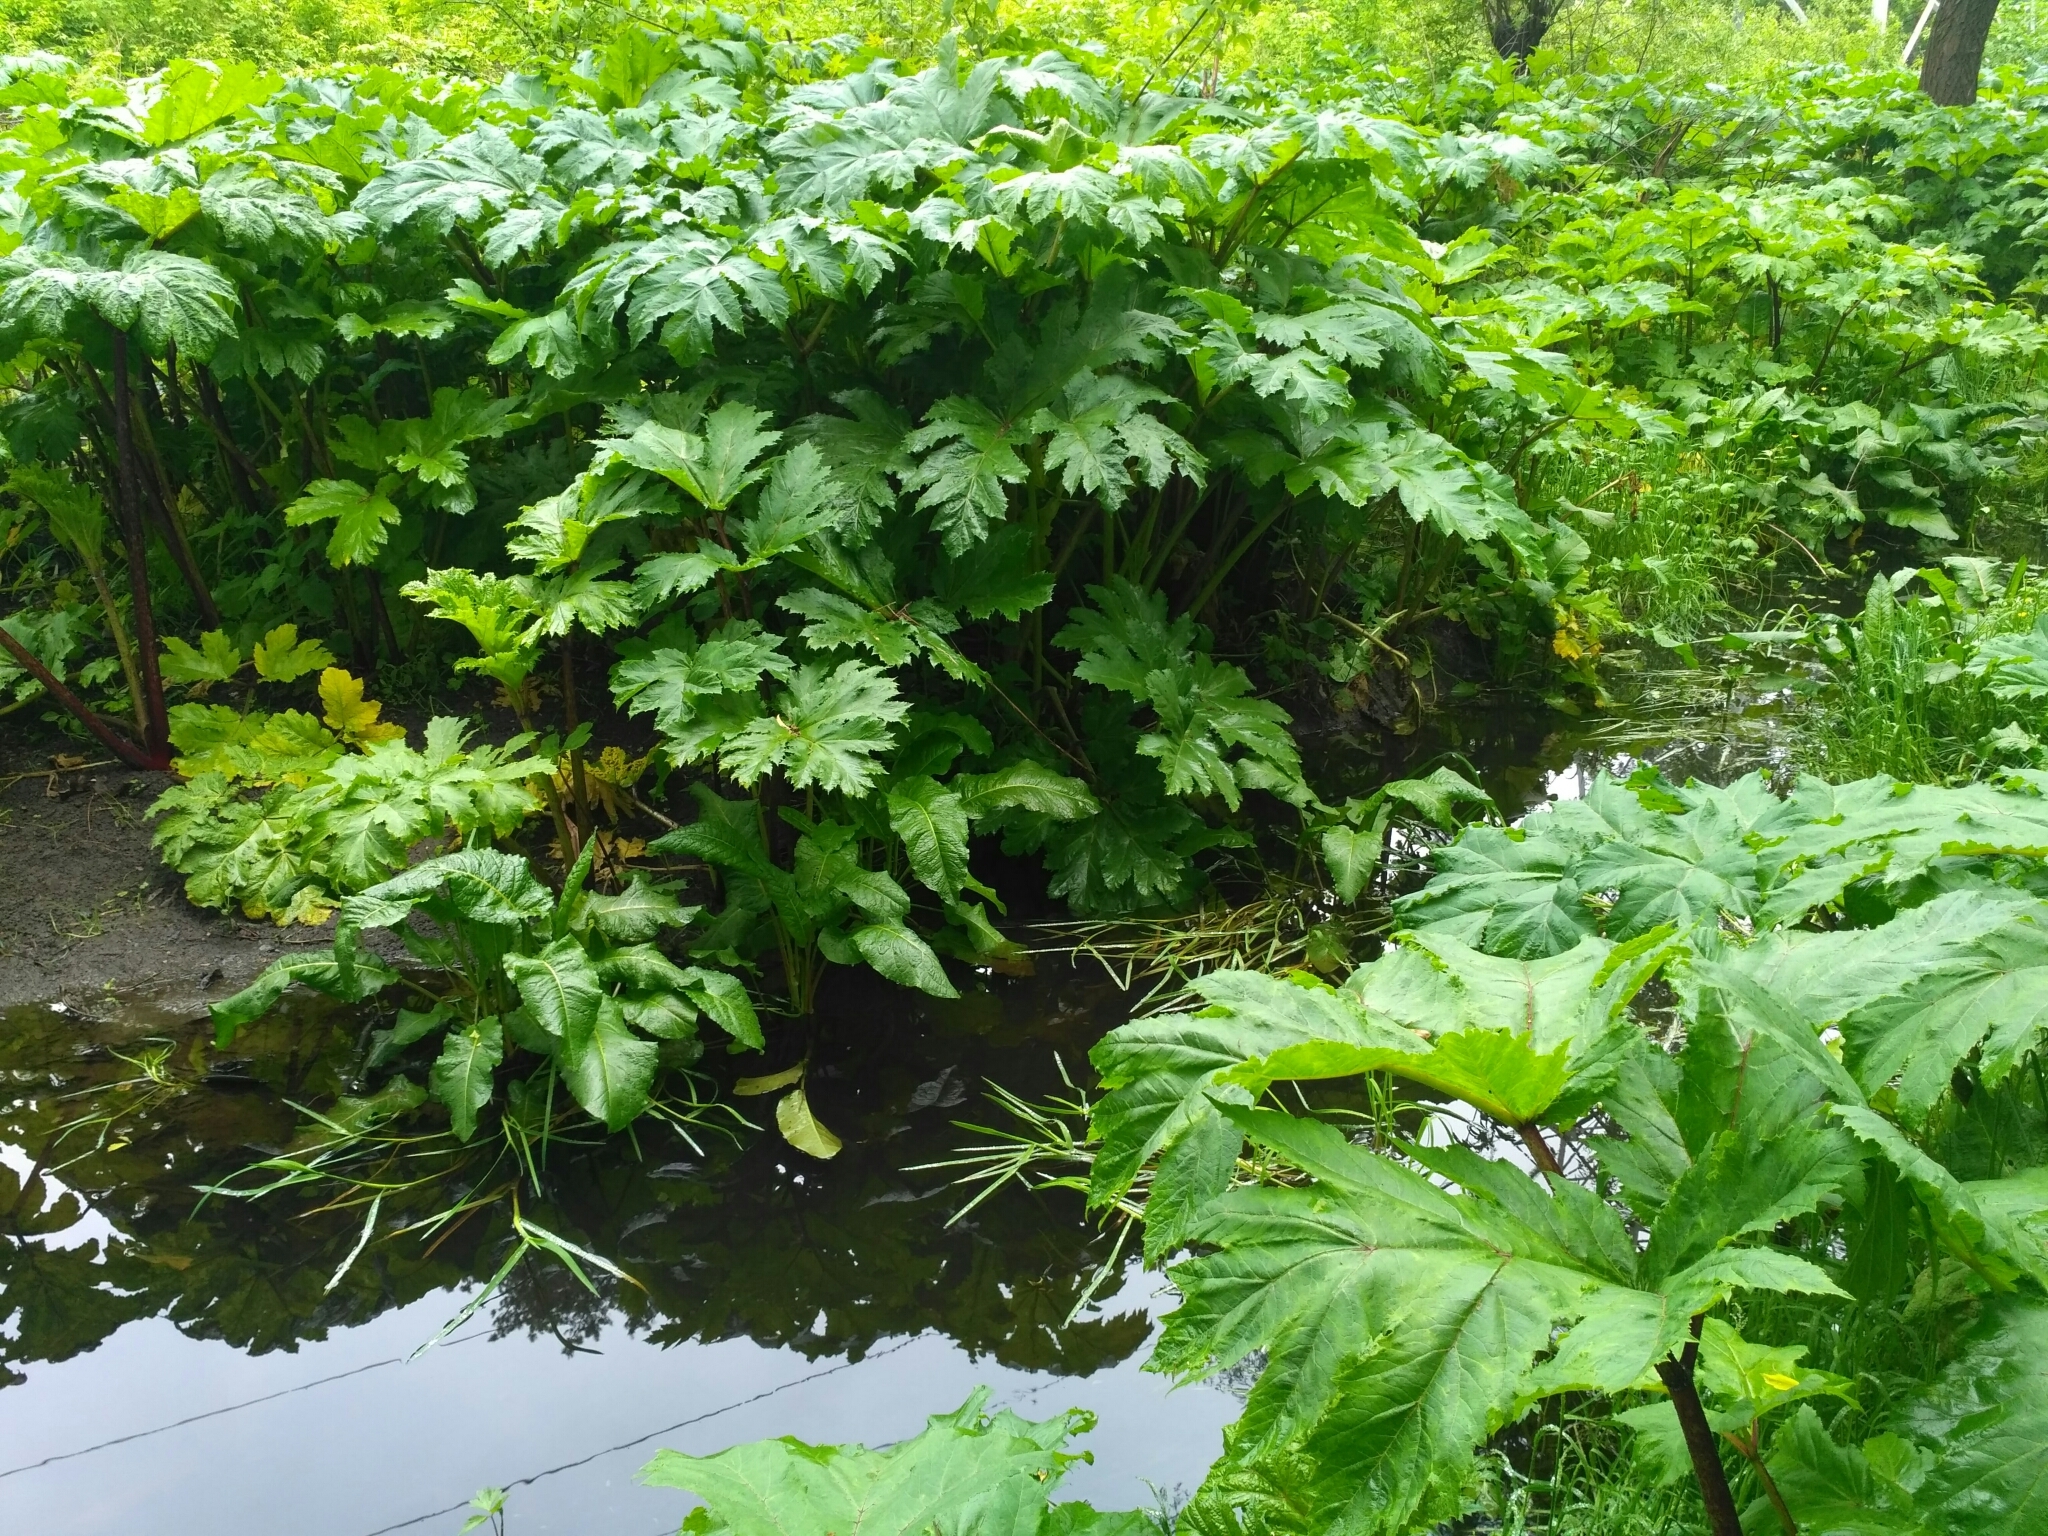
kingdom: Plantae
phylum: Tracheophyta
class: Magnoliopsida
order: Apiales
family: Apiaceae
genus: Heracleum
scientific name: Heracleum sosnowskyi
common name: Sosnowsky's hogweed
